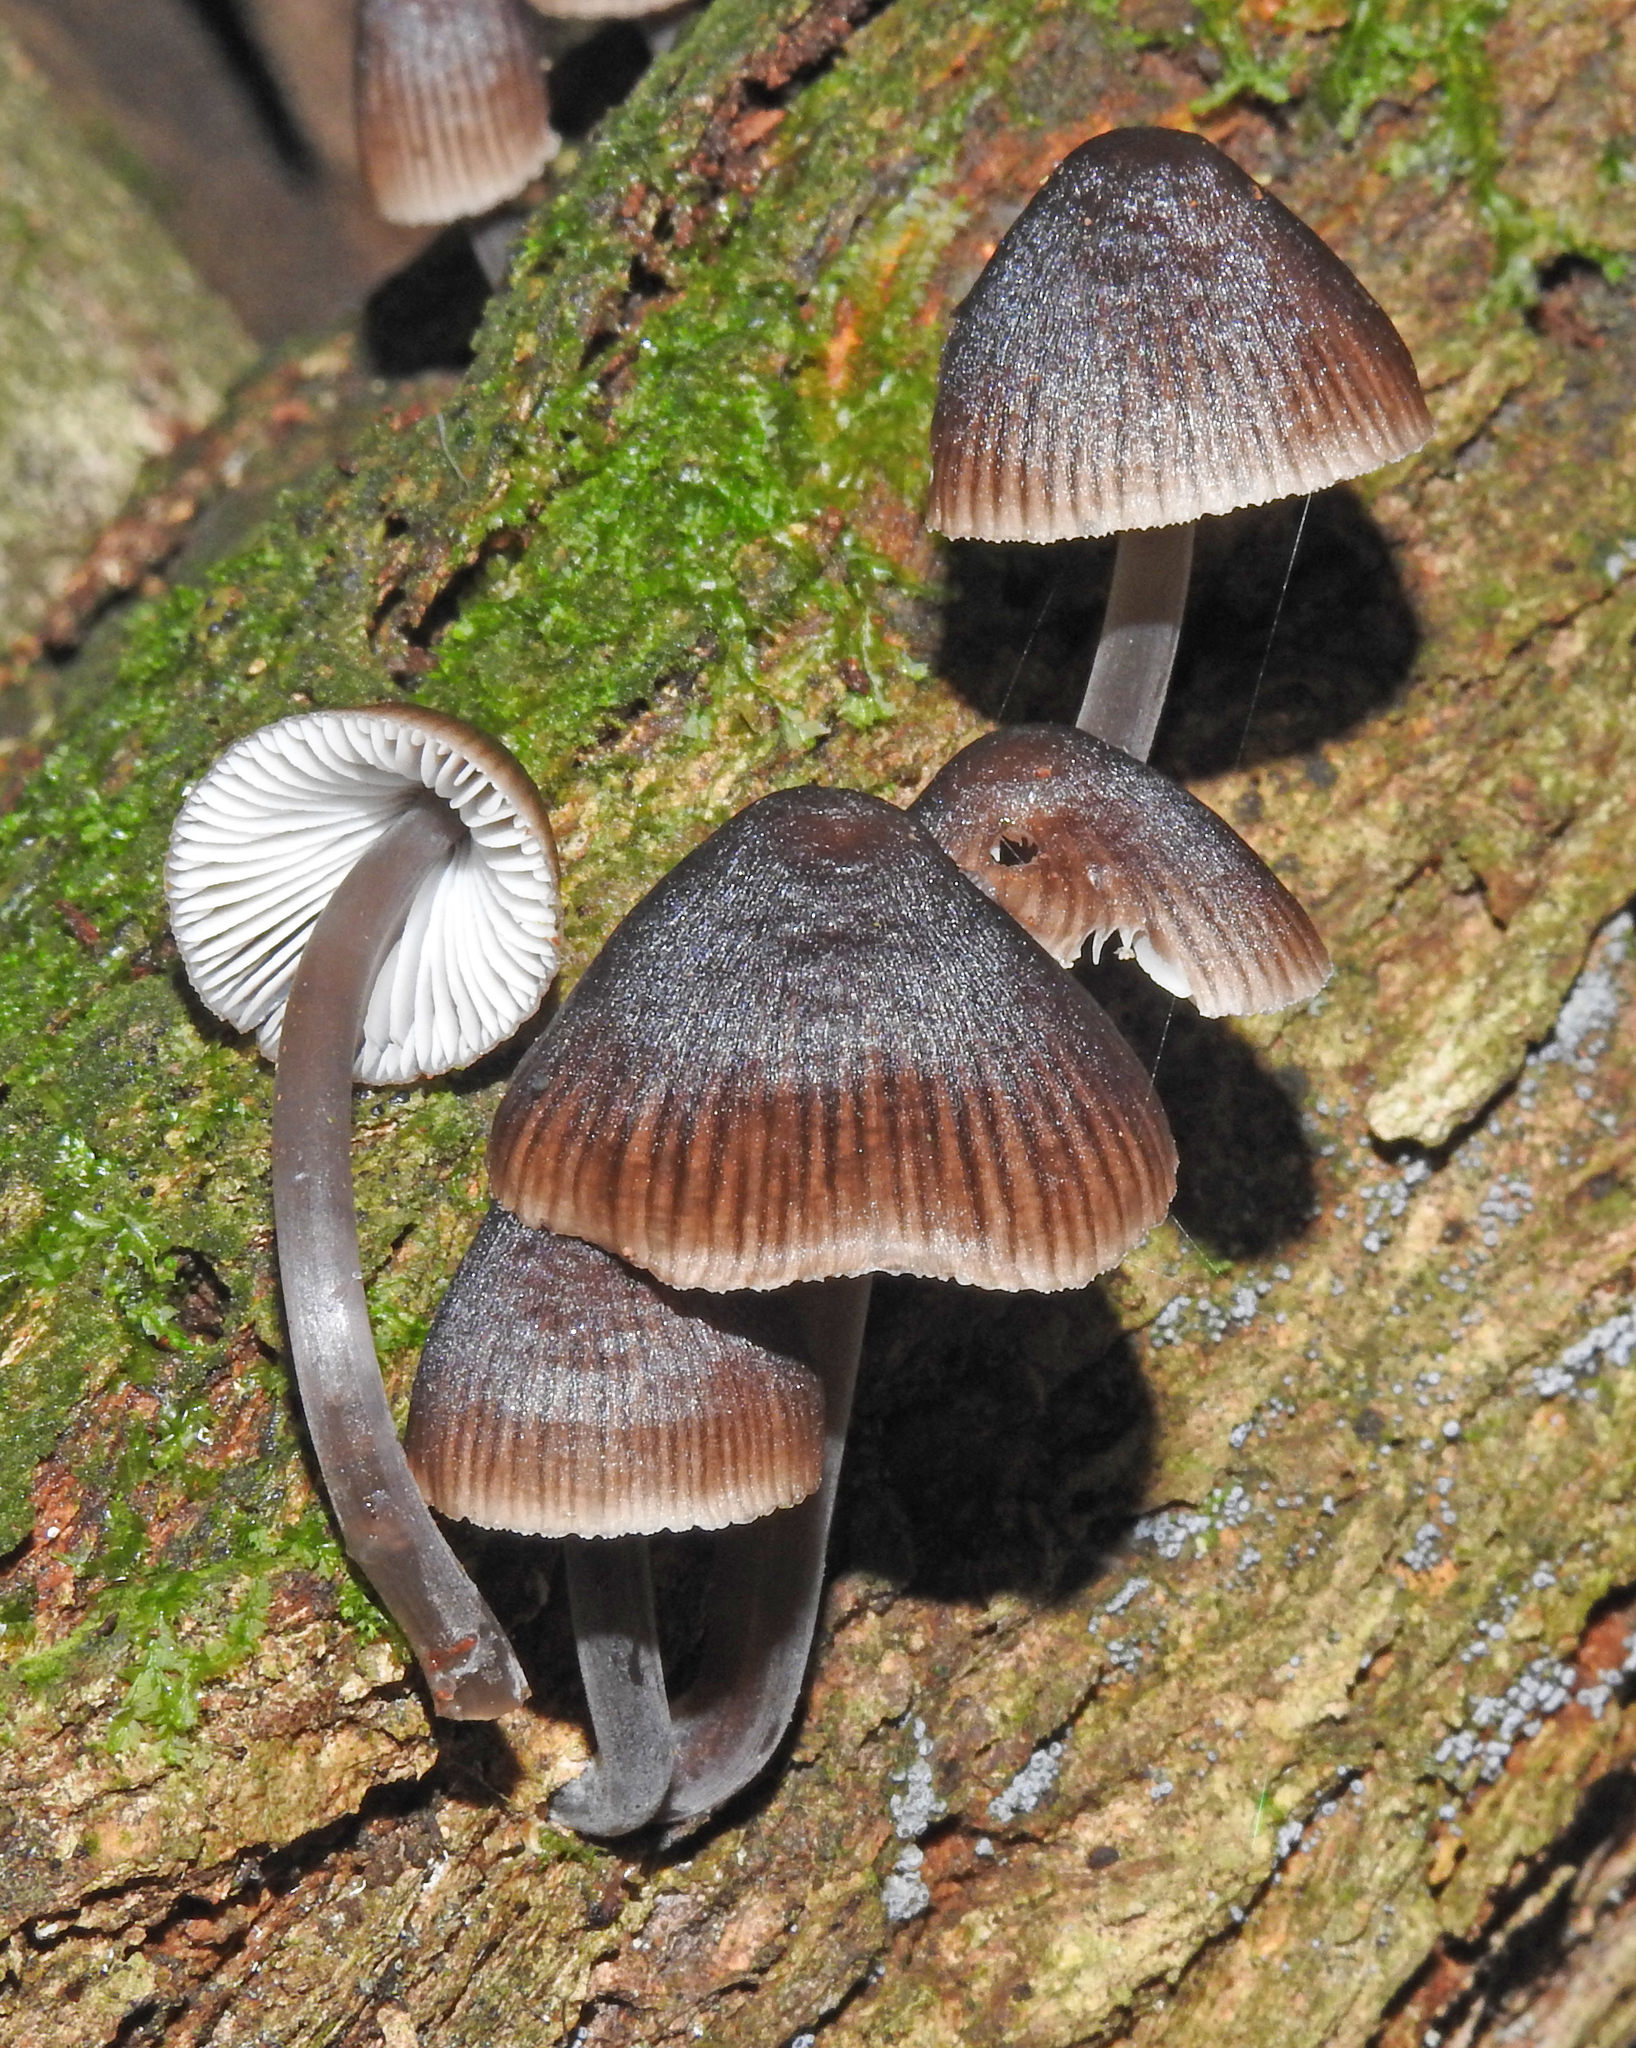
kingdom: Fungi
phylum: Basidiomycota
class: Agaricomycetes
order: Agaricales
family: Mycenaceae
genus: Mycena
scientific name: Mycena
